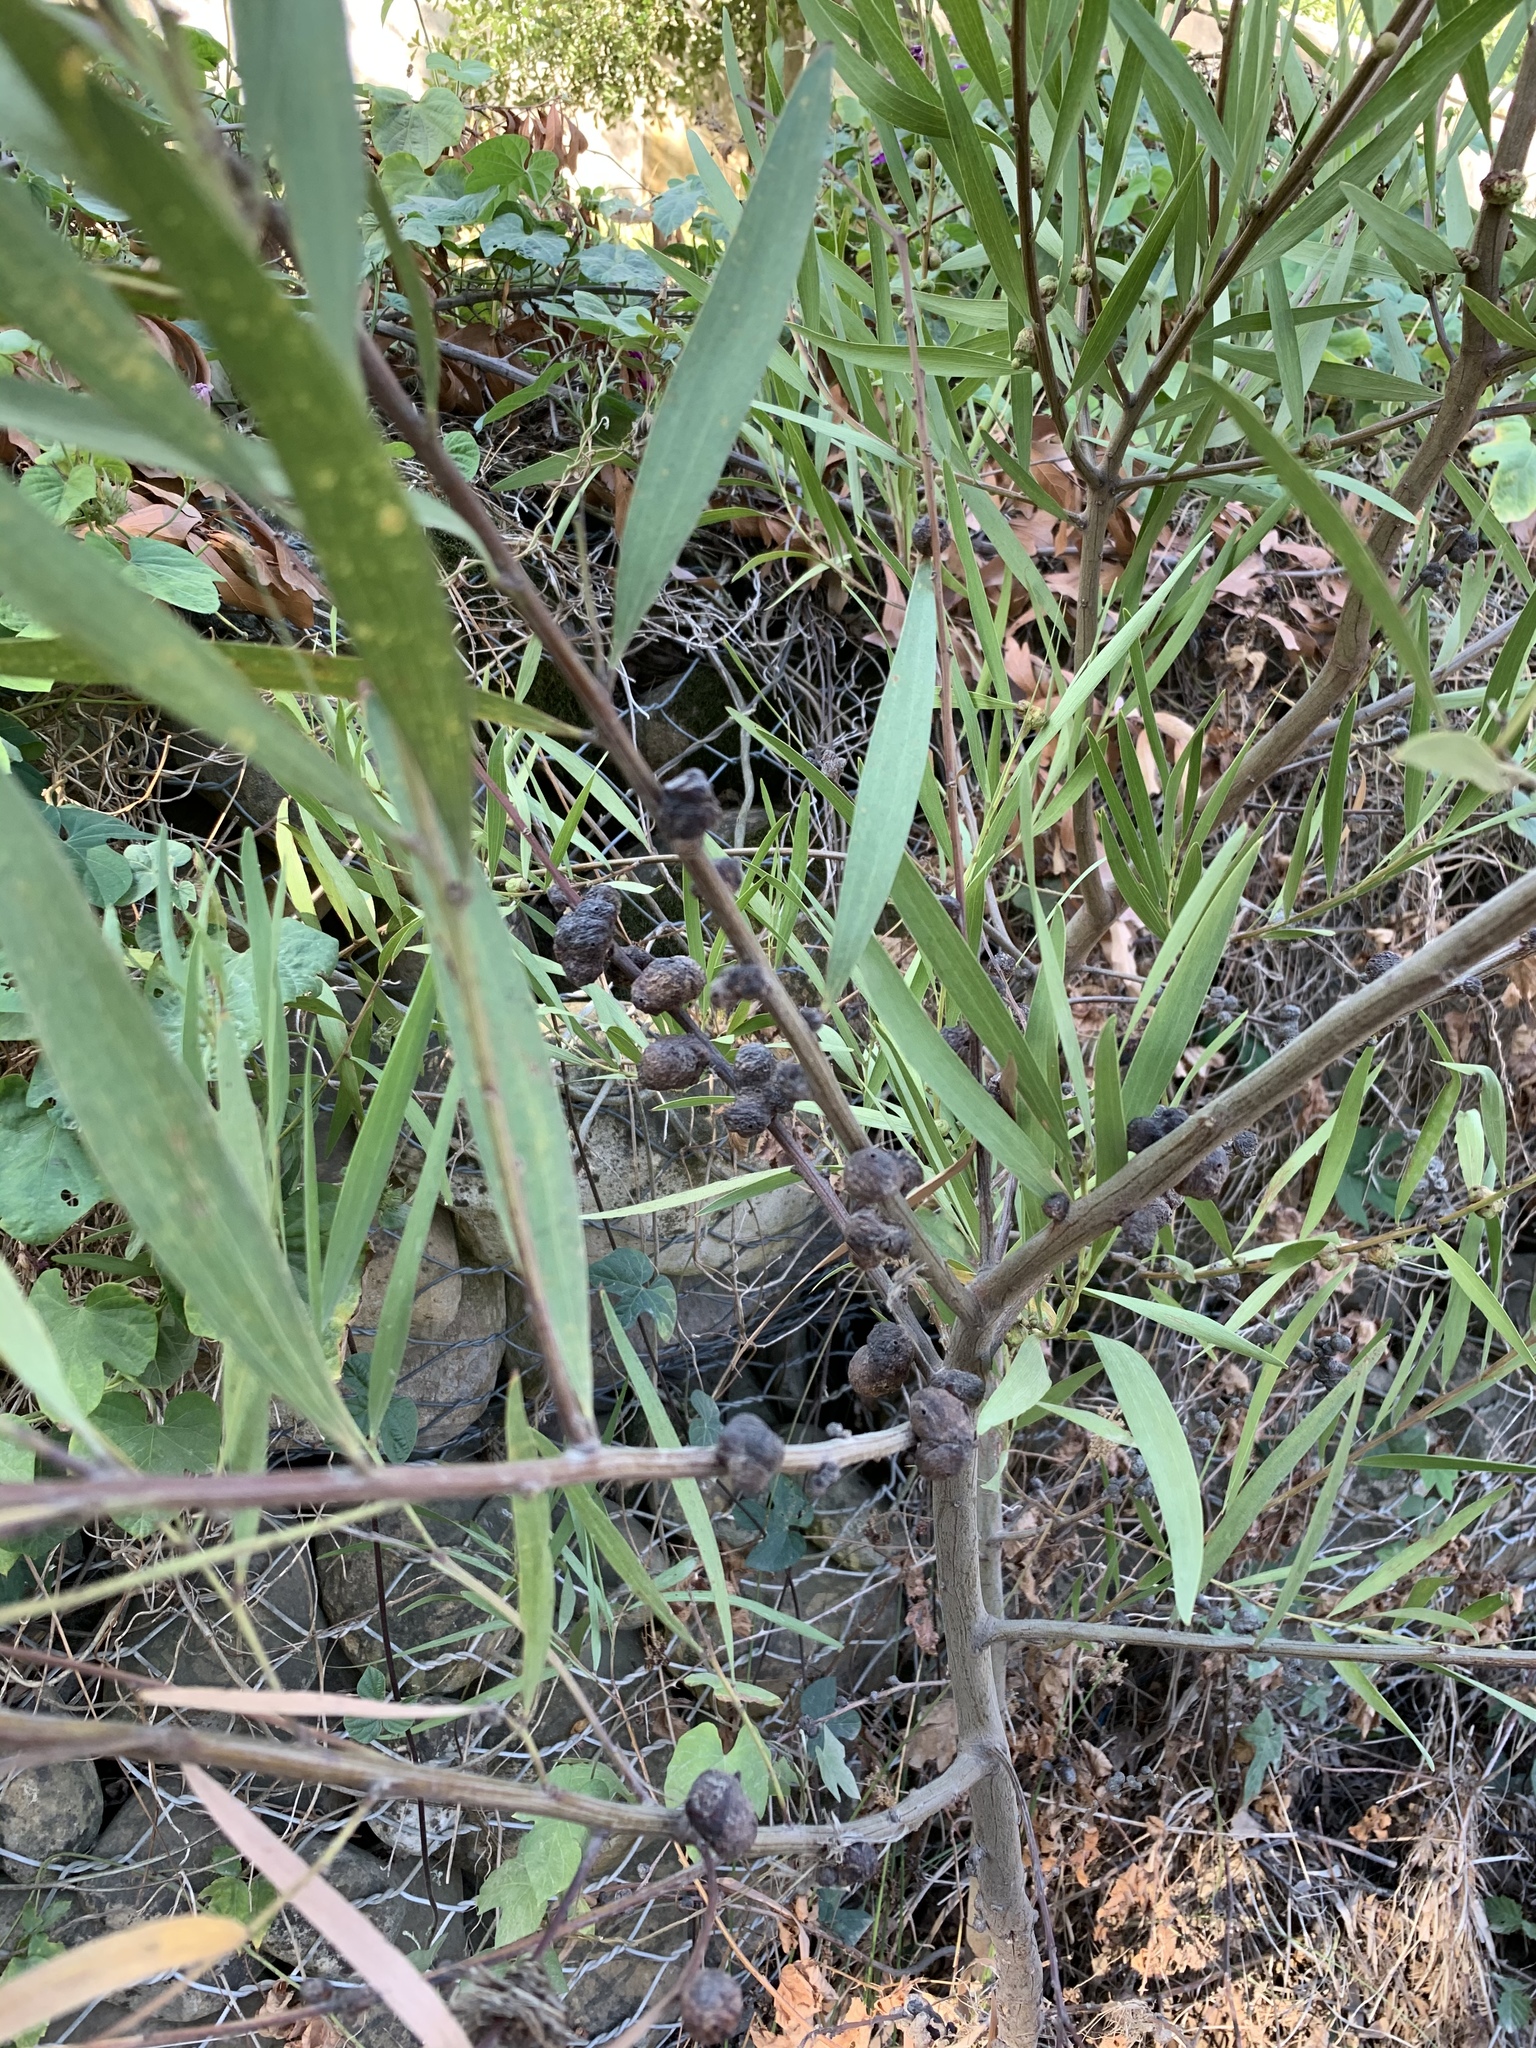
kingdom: Plantae
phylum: Tracheophyta
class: Magnoliopsida
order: Fabales
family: Fabaceae
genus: Acacia
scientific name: Acacia longifolia
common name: Sydney golden wattle
